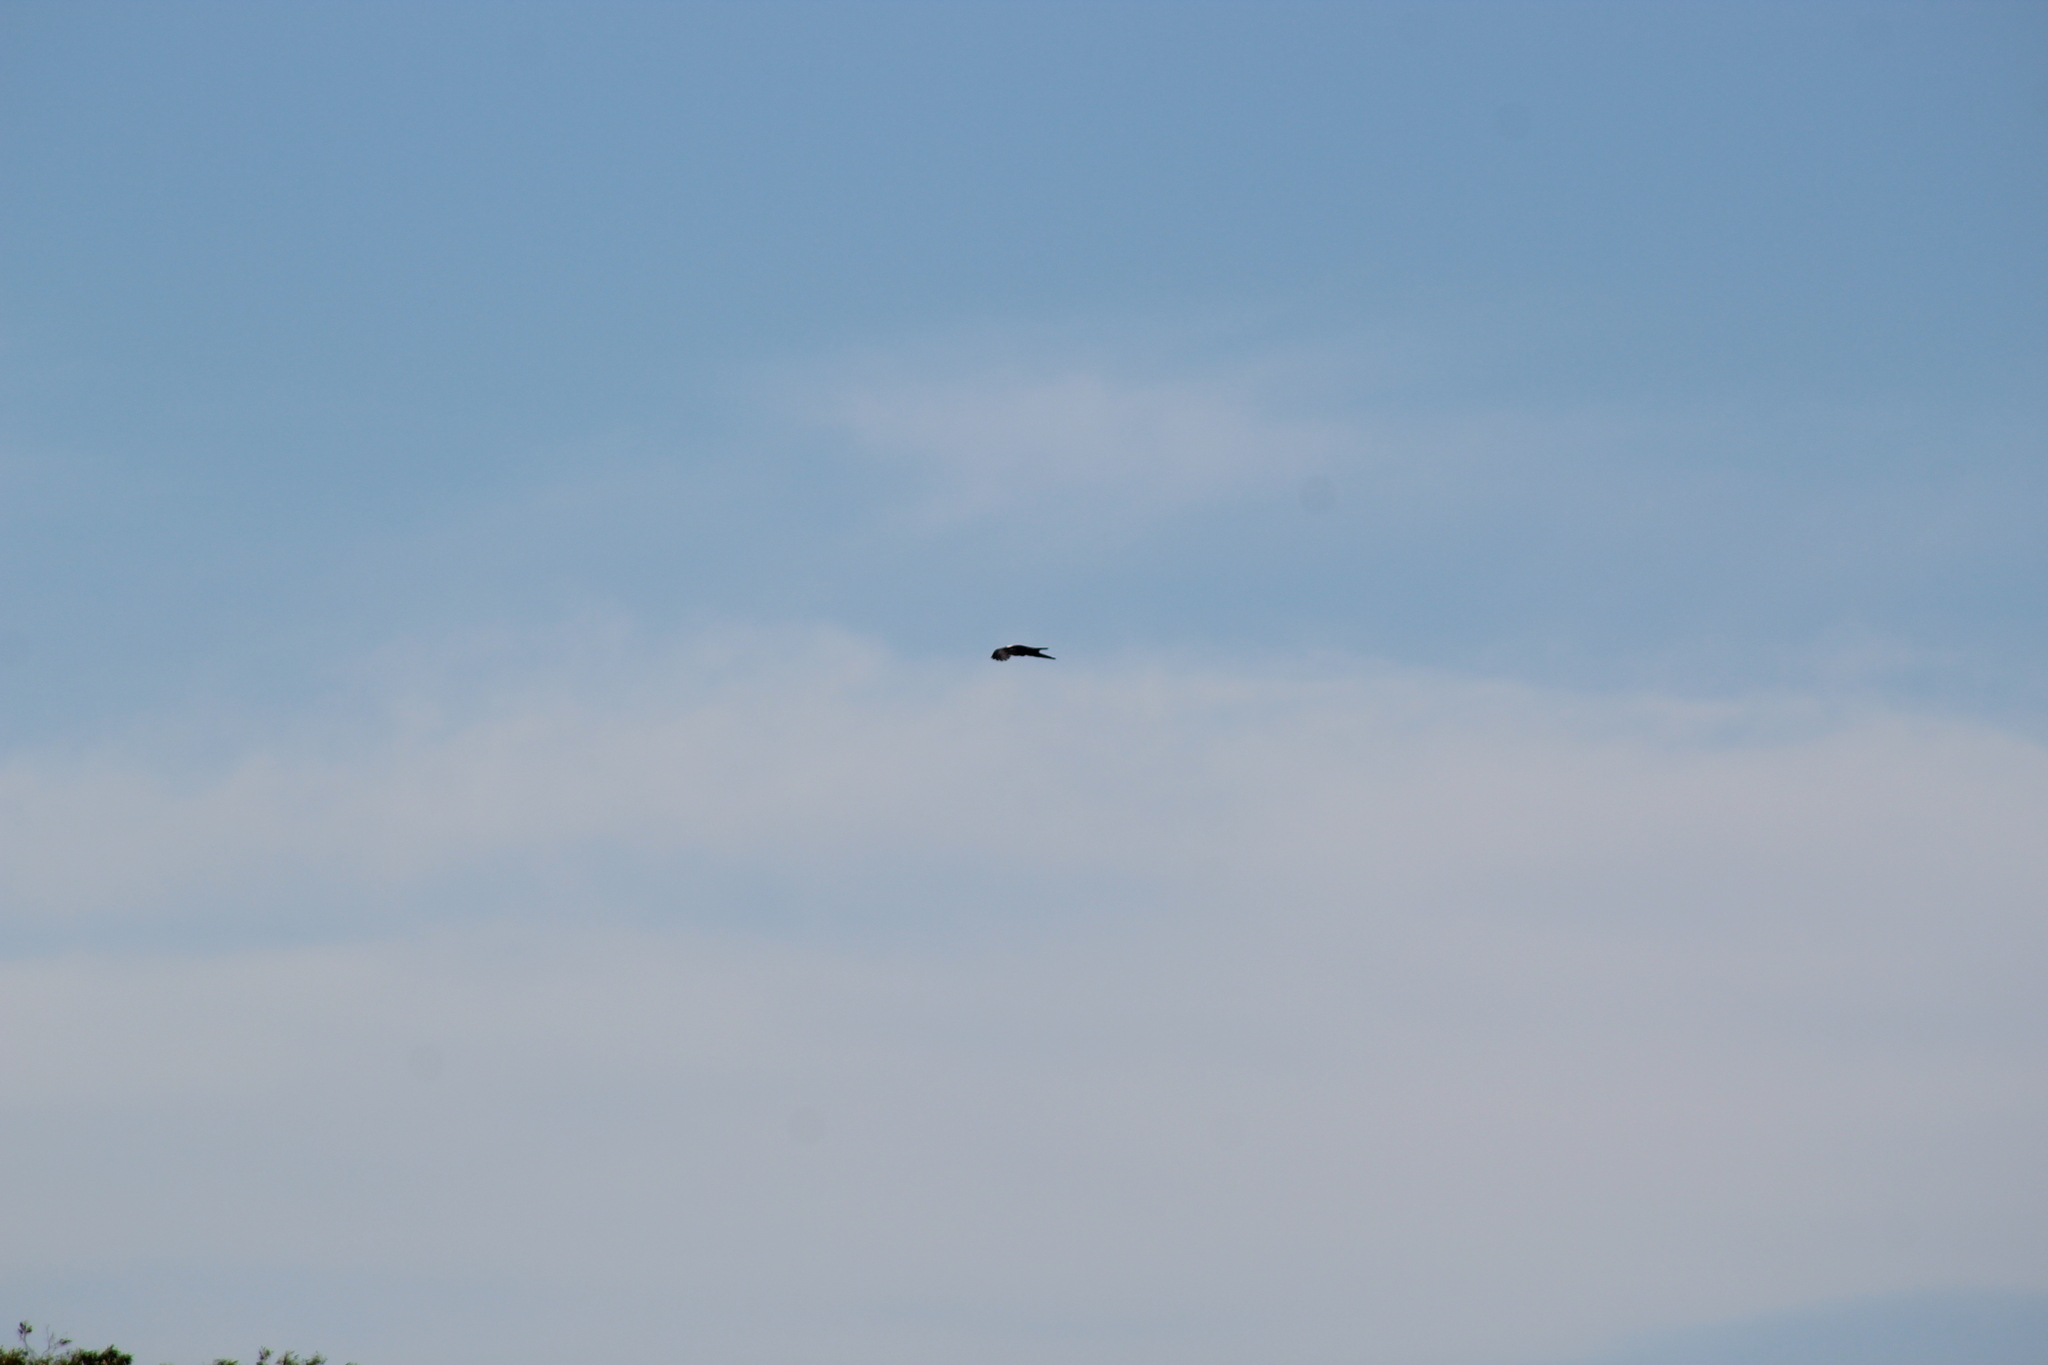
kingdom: Animalia
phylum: Chordata
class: Aves
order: Passeriformes
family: Corvidae
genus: Corvus
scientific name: Corvus albus
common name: Pied crow
